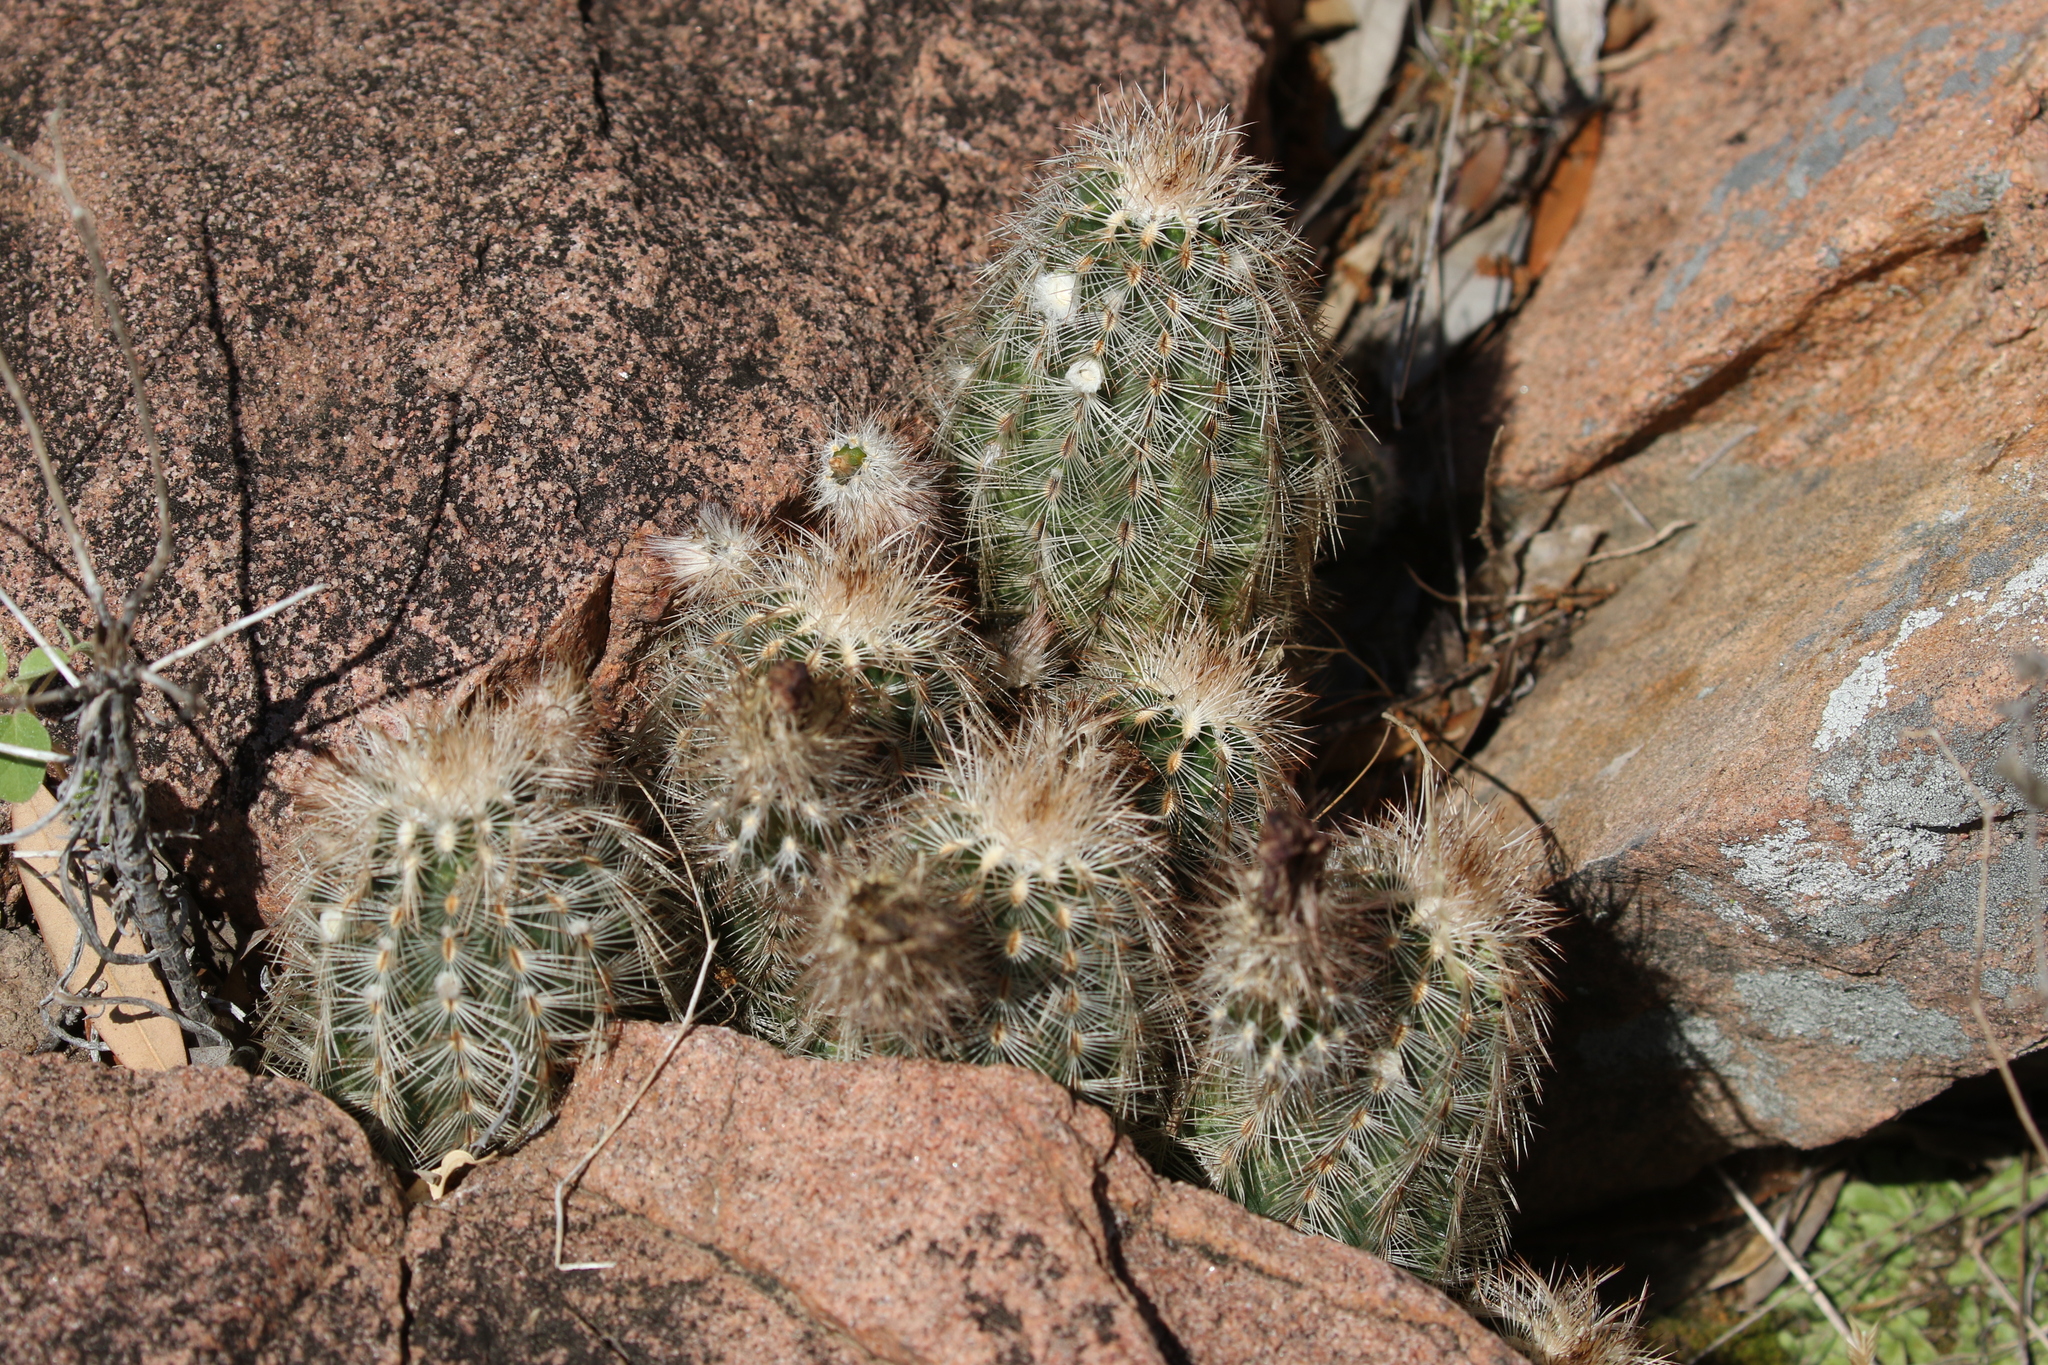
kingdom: Plantae
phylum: Tracheophyta
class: Magnoliopsida
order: Caryophyllales
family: Cactaceae
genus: Echinocereus
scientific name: Echinocereus reichenbachii
